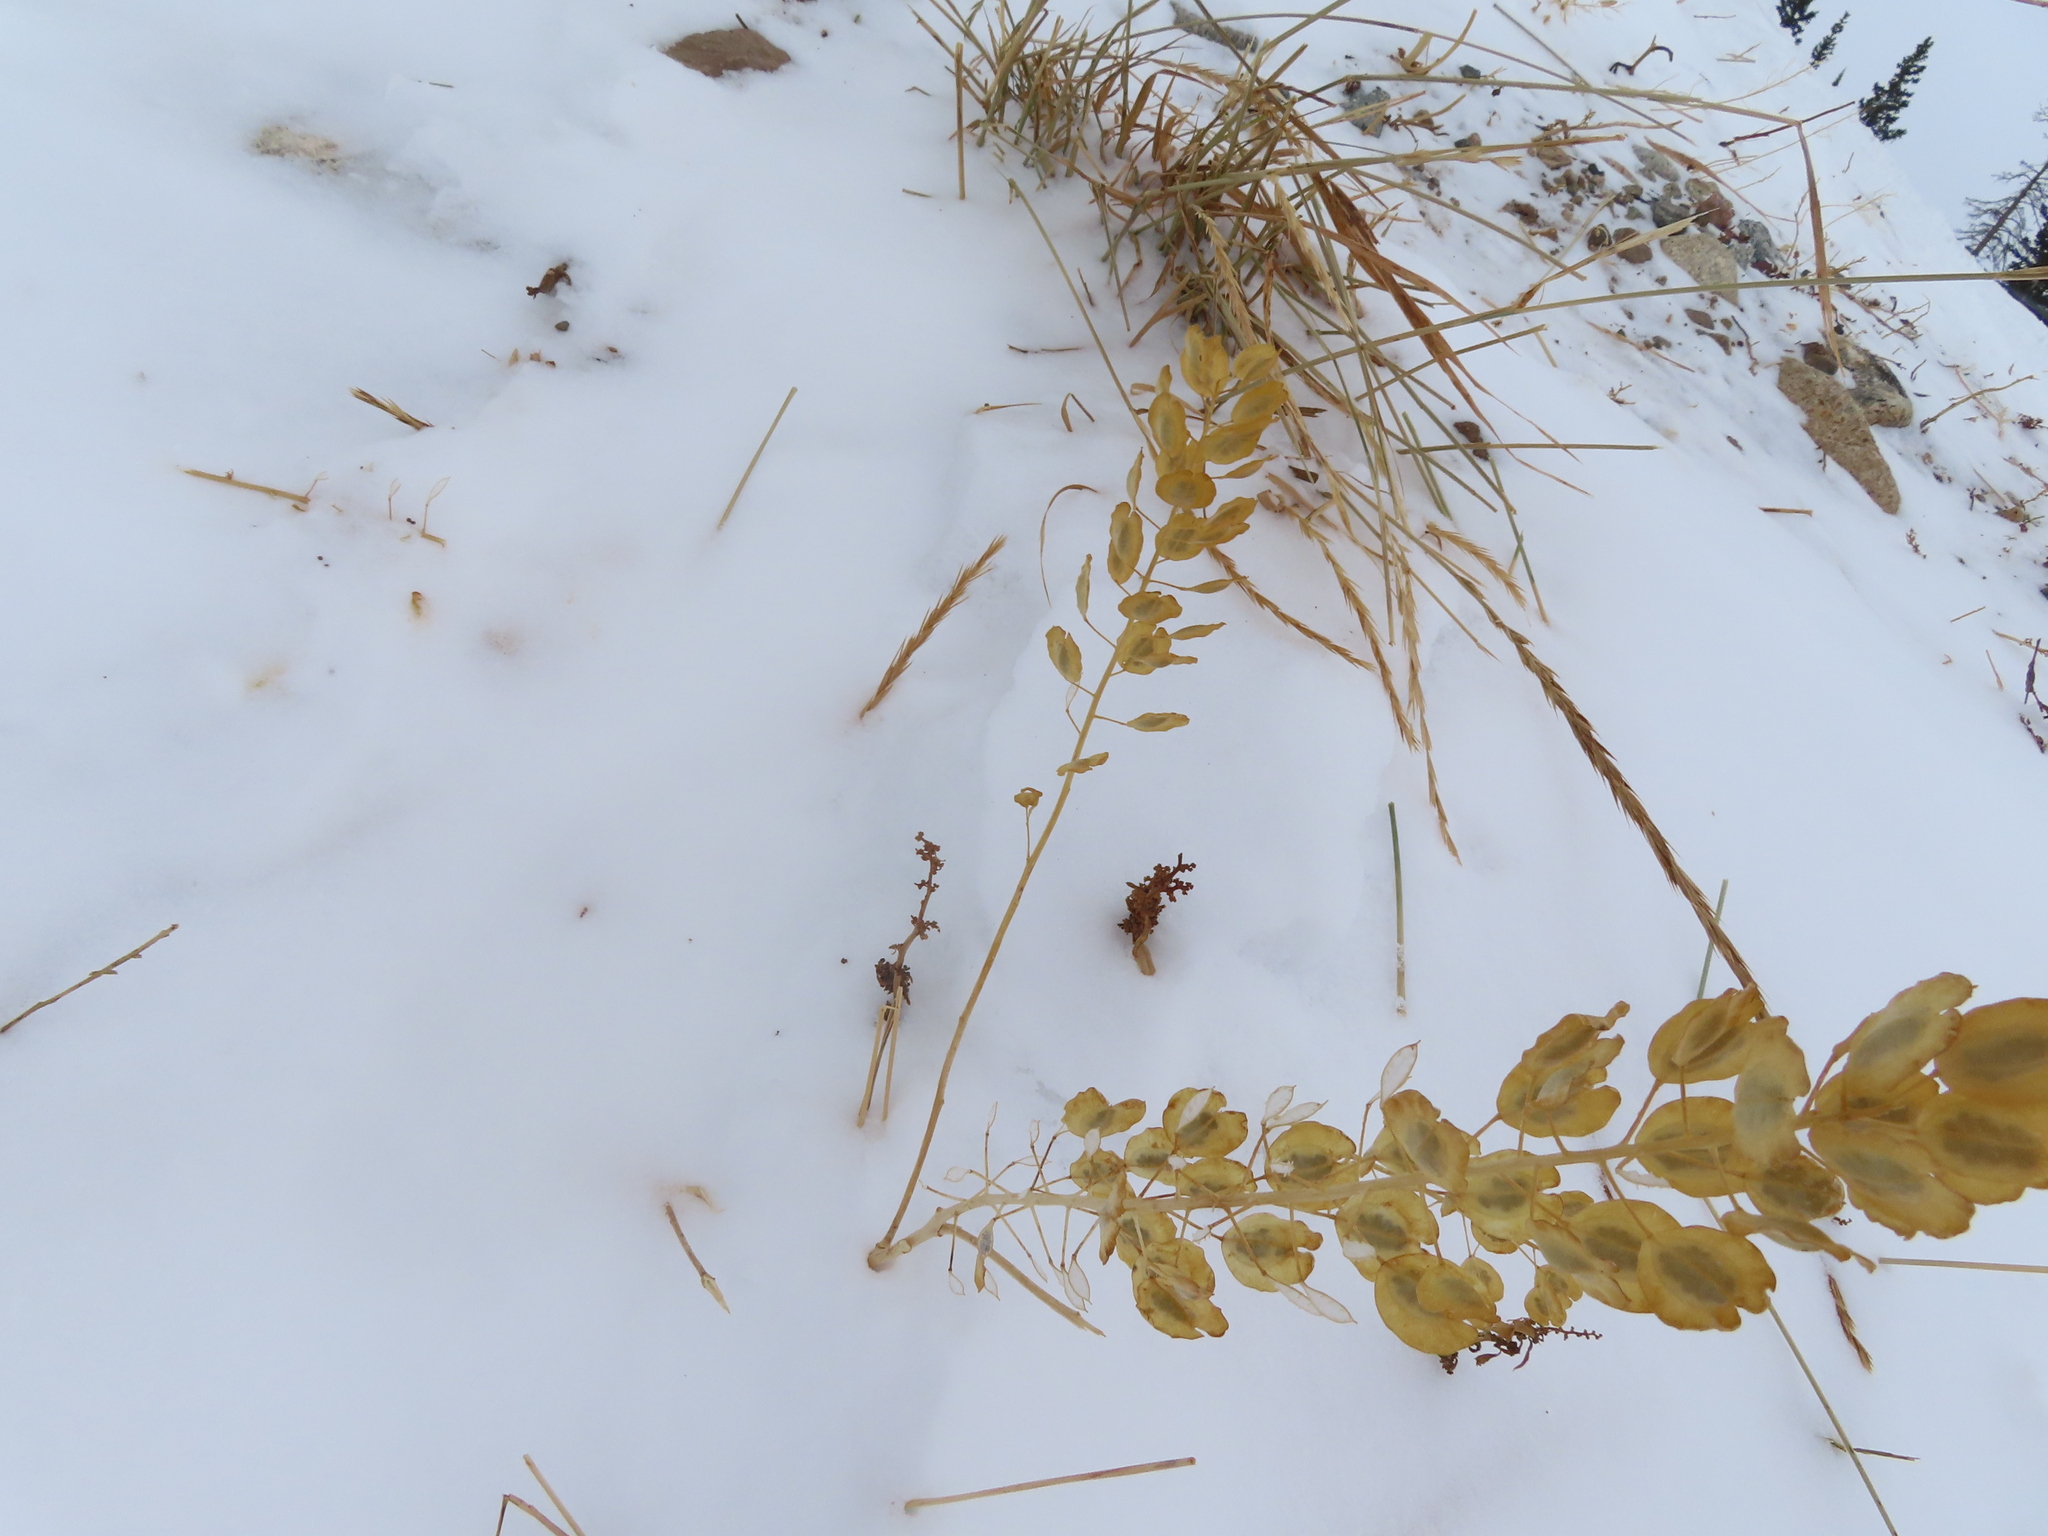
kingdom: Plantae
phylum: Tracheophyta
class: Magnoliopsida
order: Brassicales
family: Brassicaceae
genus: Thlaspi
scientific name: Thlaspi arvense
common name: Field pennycress
